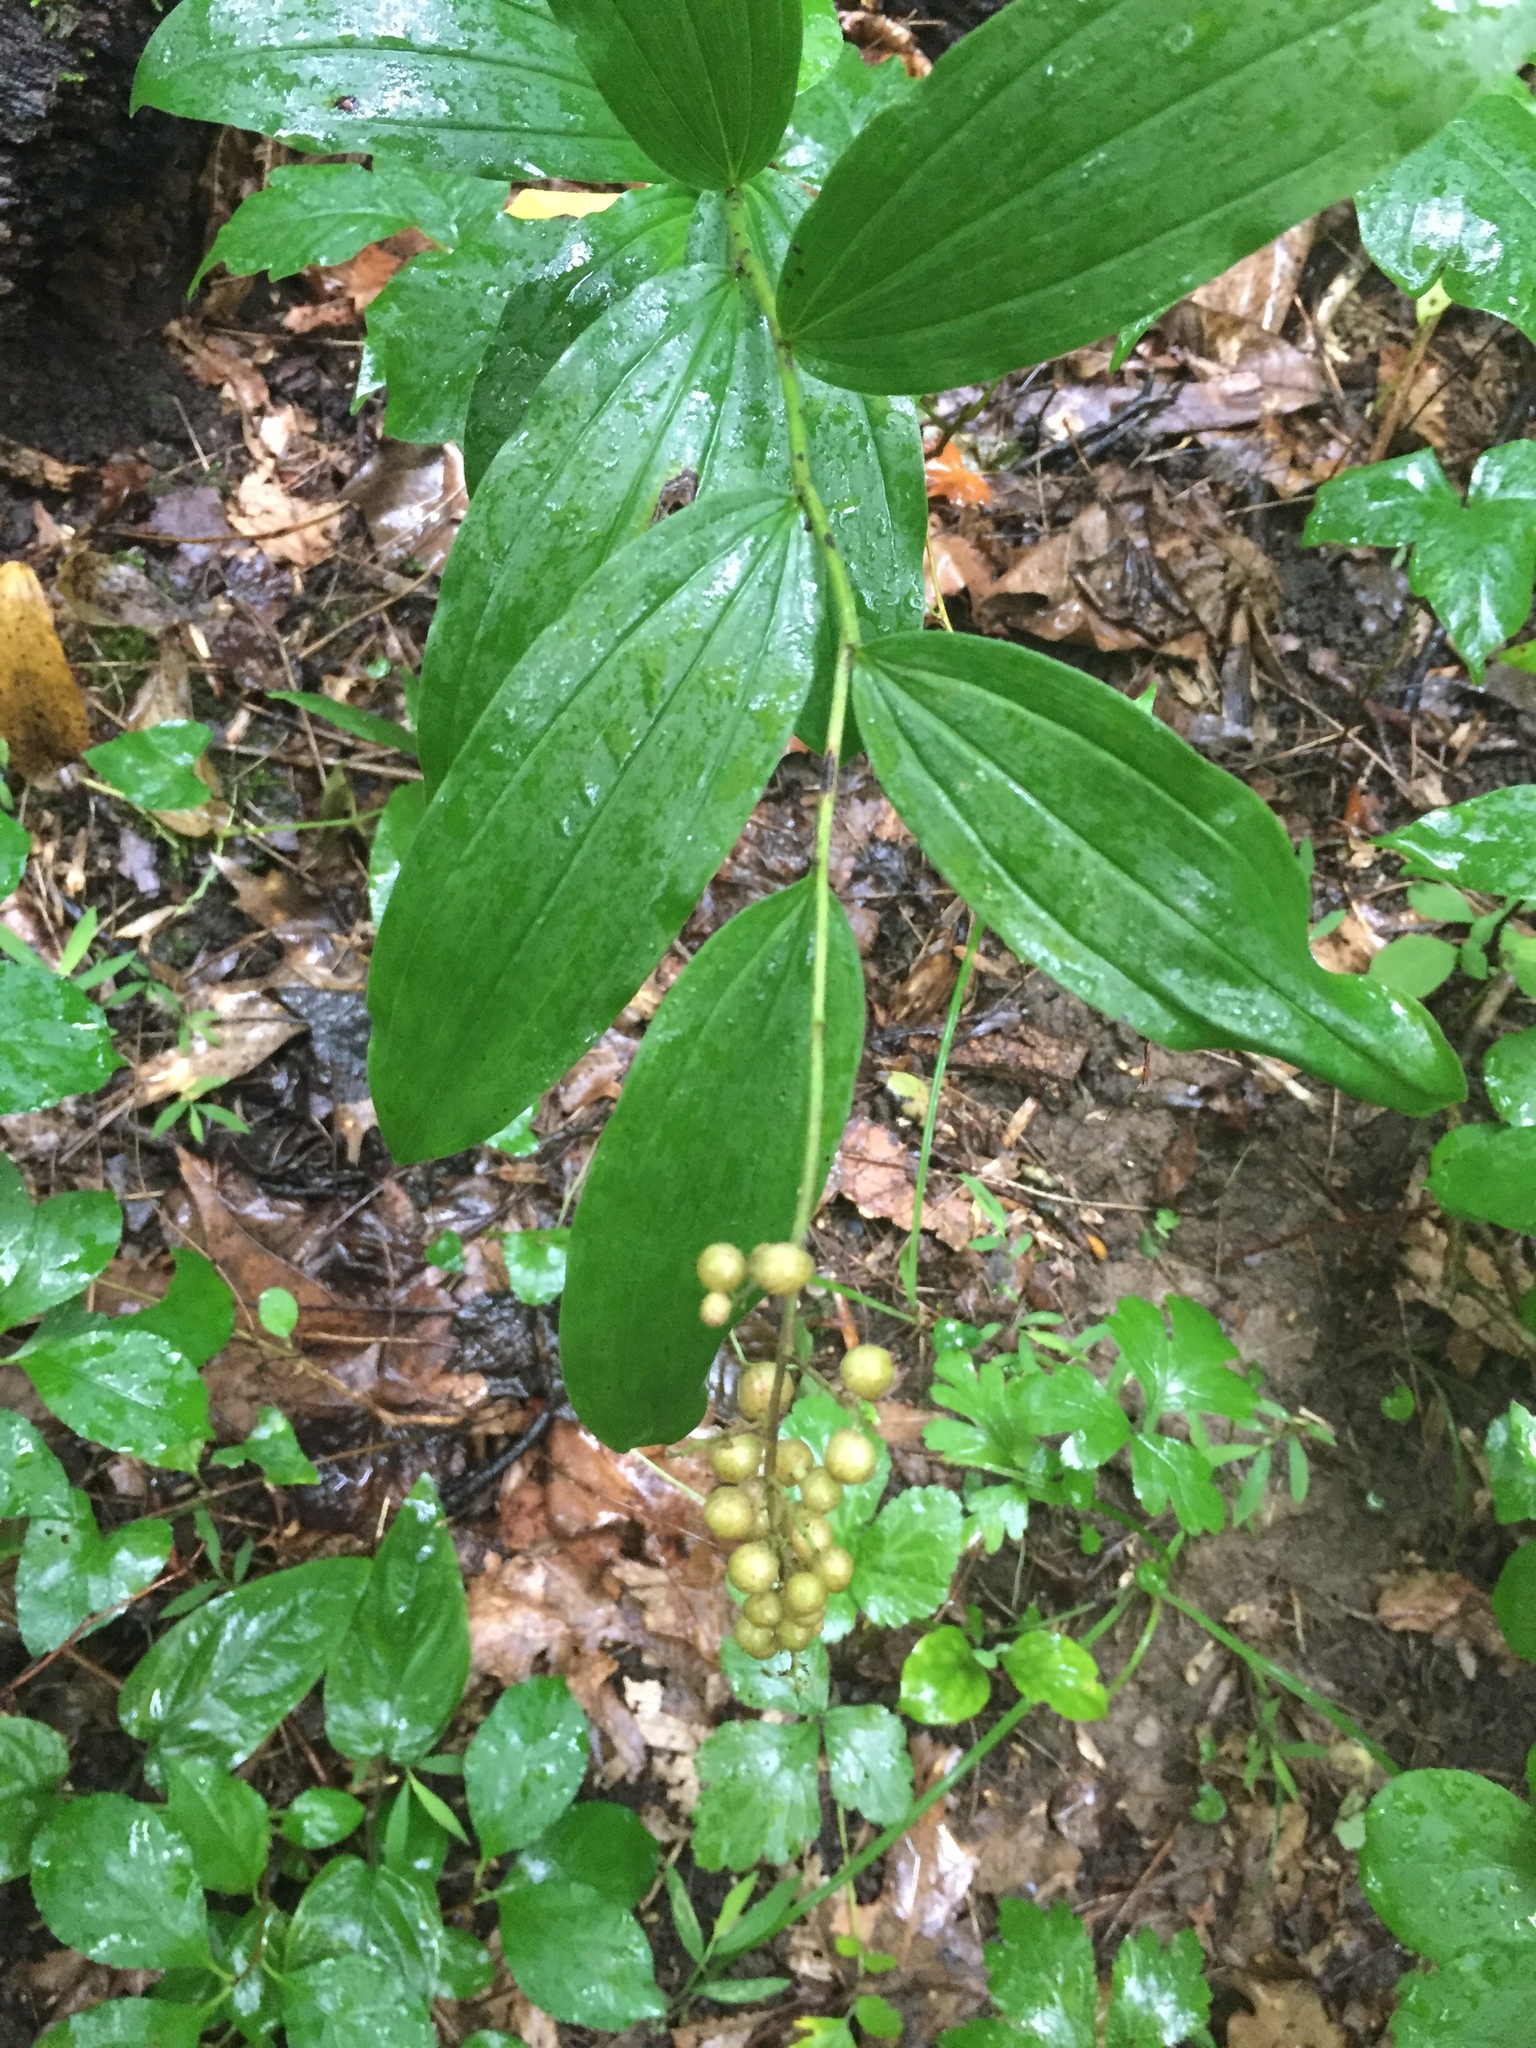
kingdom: Plantae
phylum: Tracheophyta
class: Liliopsida
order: Asparagales
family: Asparagaceae
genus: Maianthemum
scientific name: Maianthemum racemosum
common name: False spikenard
